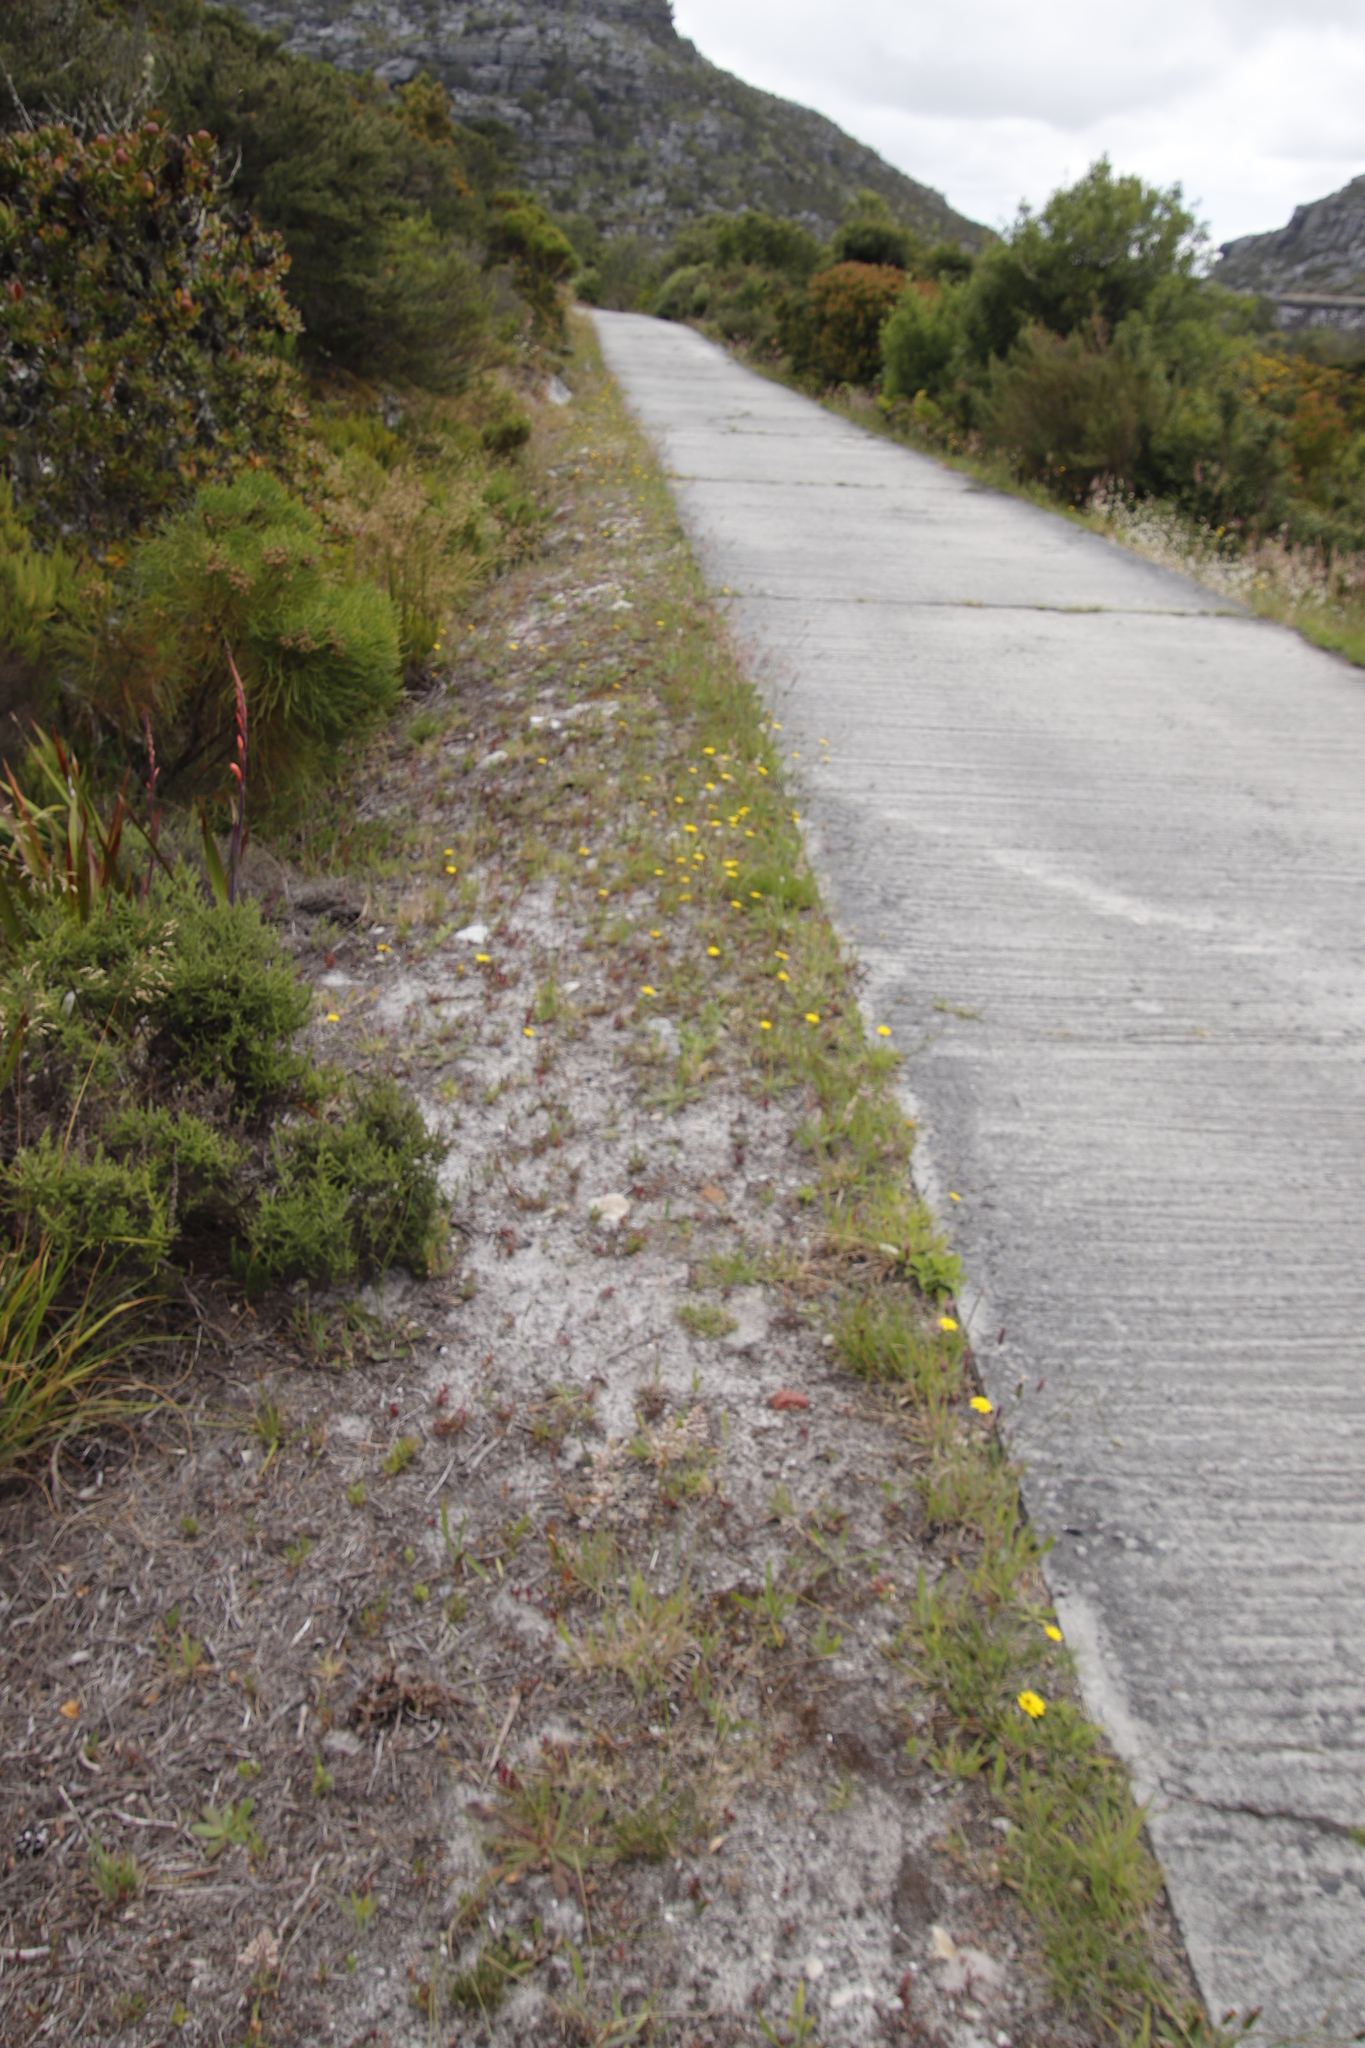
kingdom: Plantae
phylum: Tracheophyta
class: Magnoliopsida
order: Asterales
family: Asteraceae
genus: Hypochaeris
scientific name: Hypochaeris radicata
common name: Flatweed
